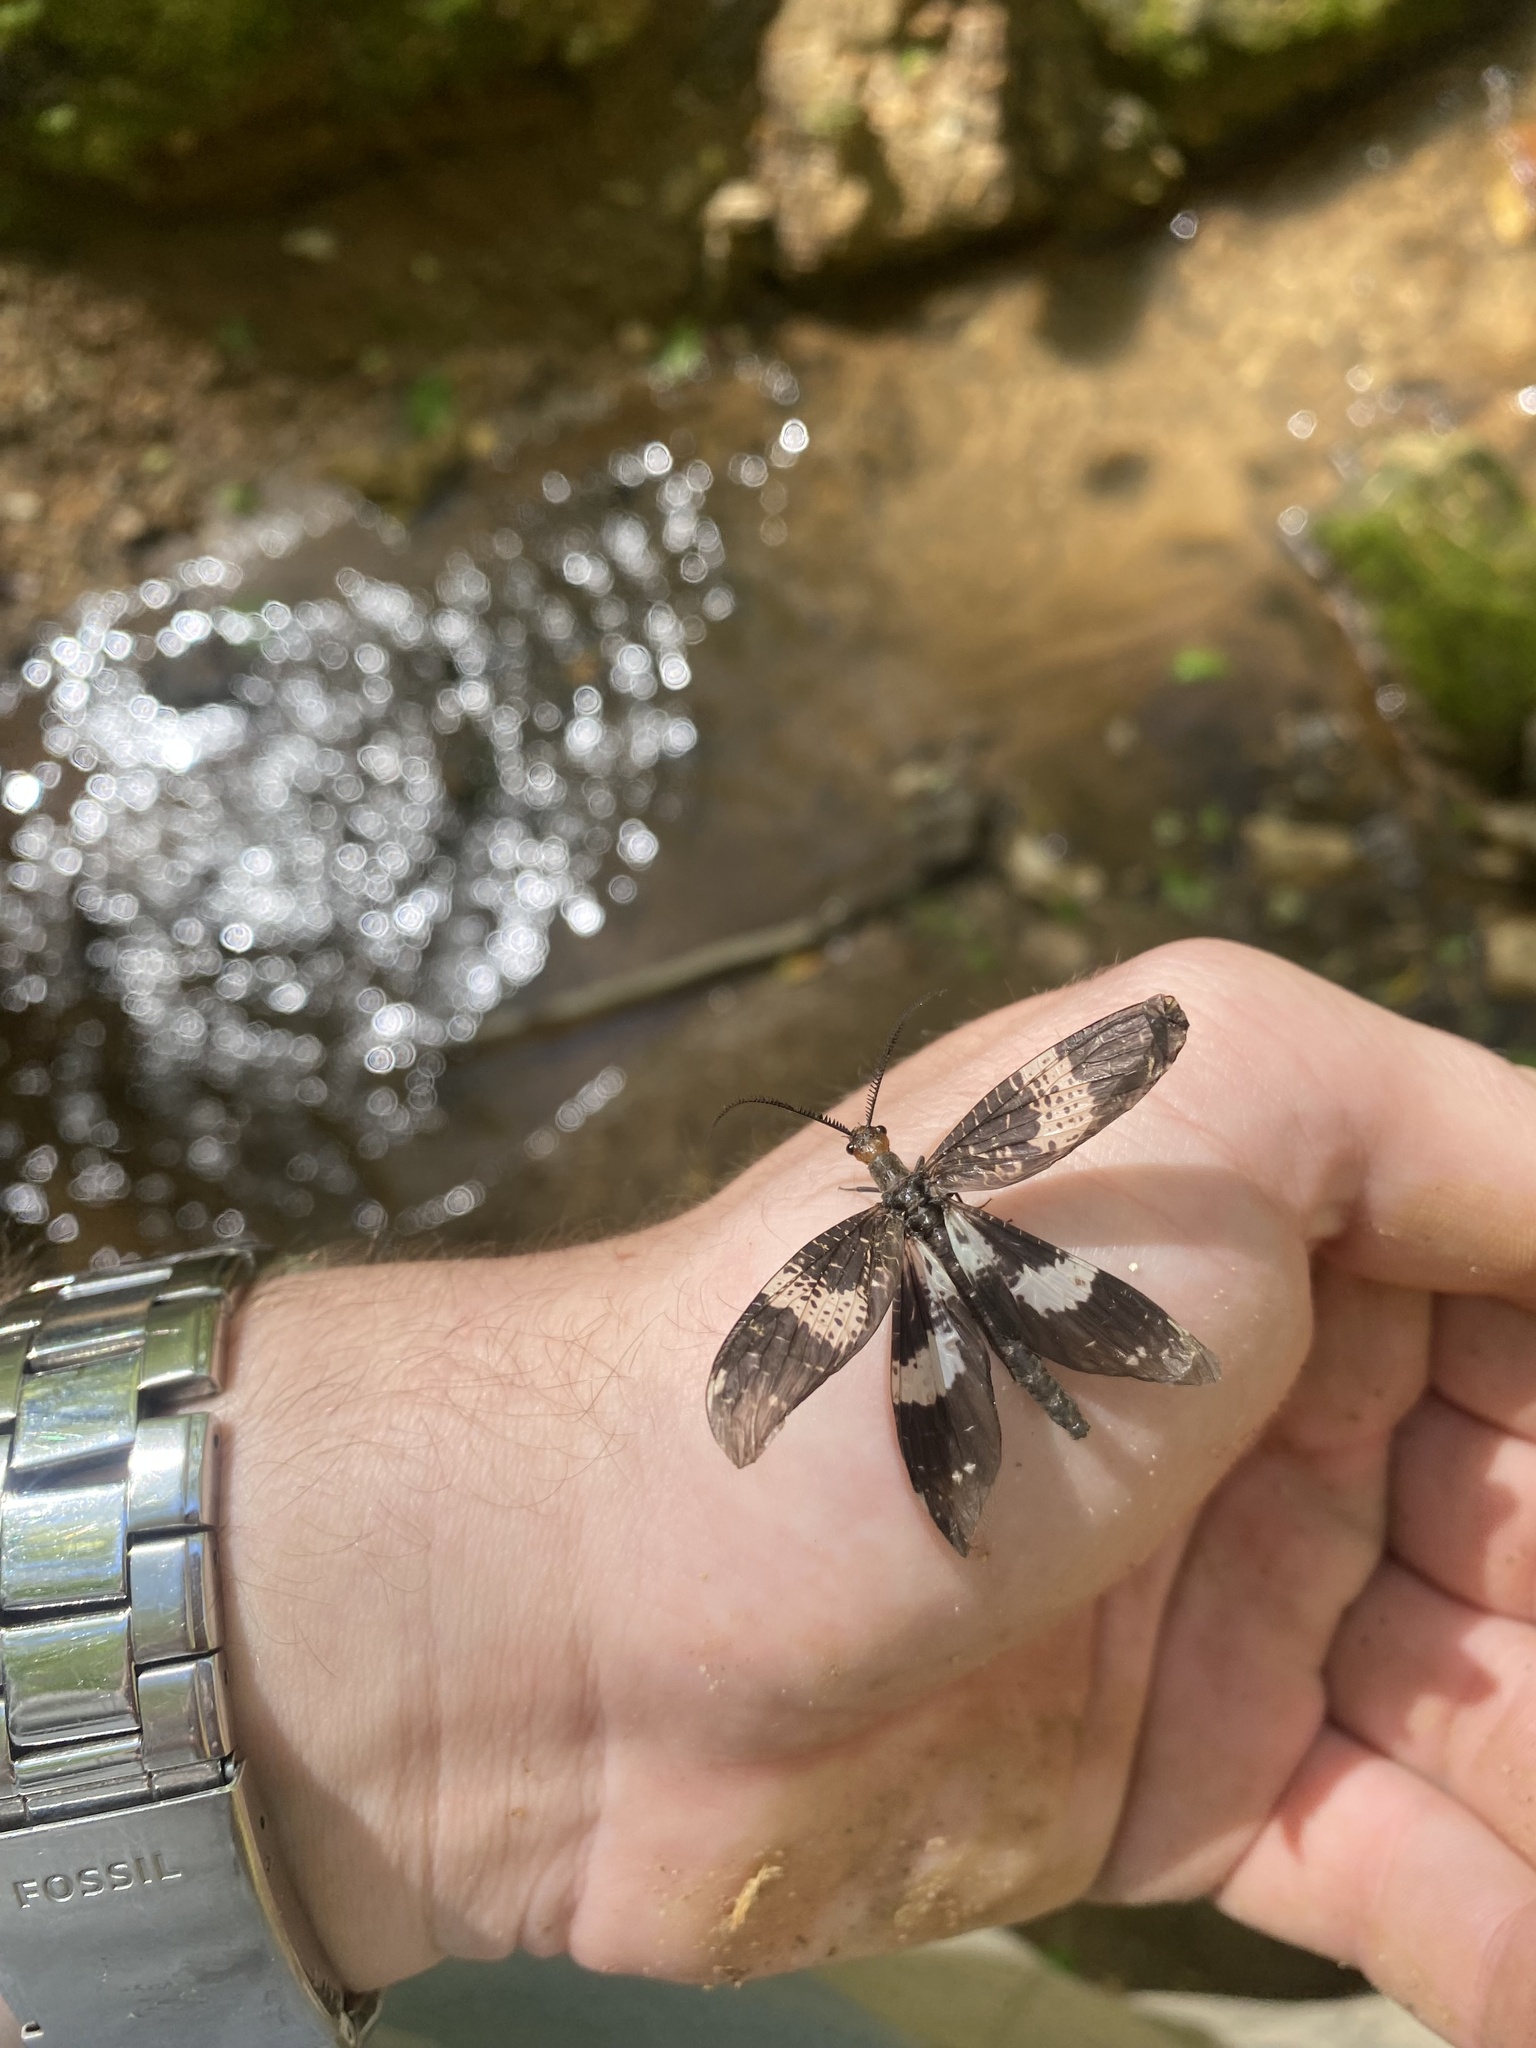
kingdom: Animalia
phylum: Arthropoda
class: Insecta
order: Megaloptera
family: Corydalidae
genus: Nigronia
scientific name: Nigronia fasciata
